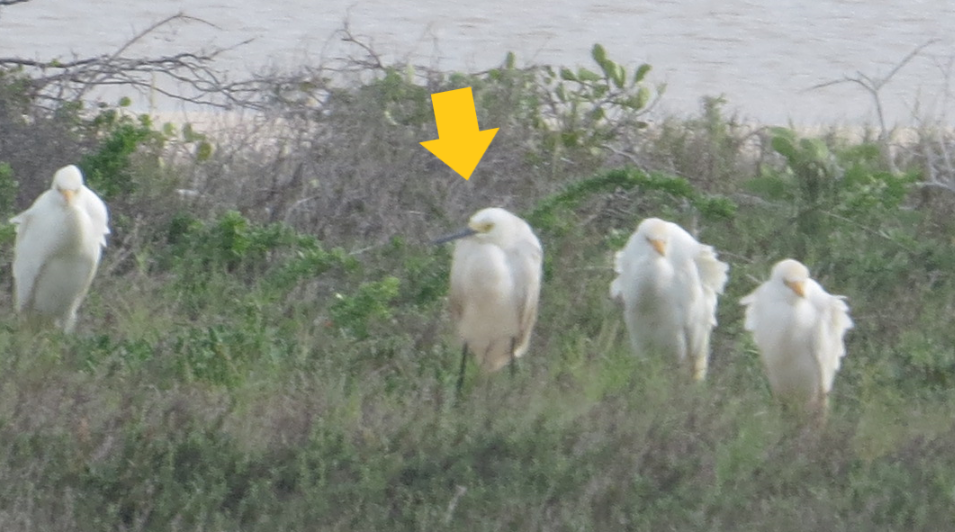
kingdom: Animalia
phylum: Chordata
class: Aves
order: Pelecaniformes
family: Ardeidae
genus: Egretta
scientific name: Egretta thula
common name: Snowy egret
